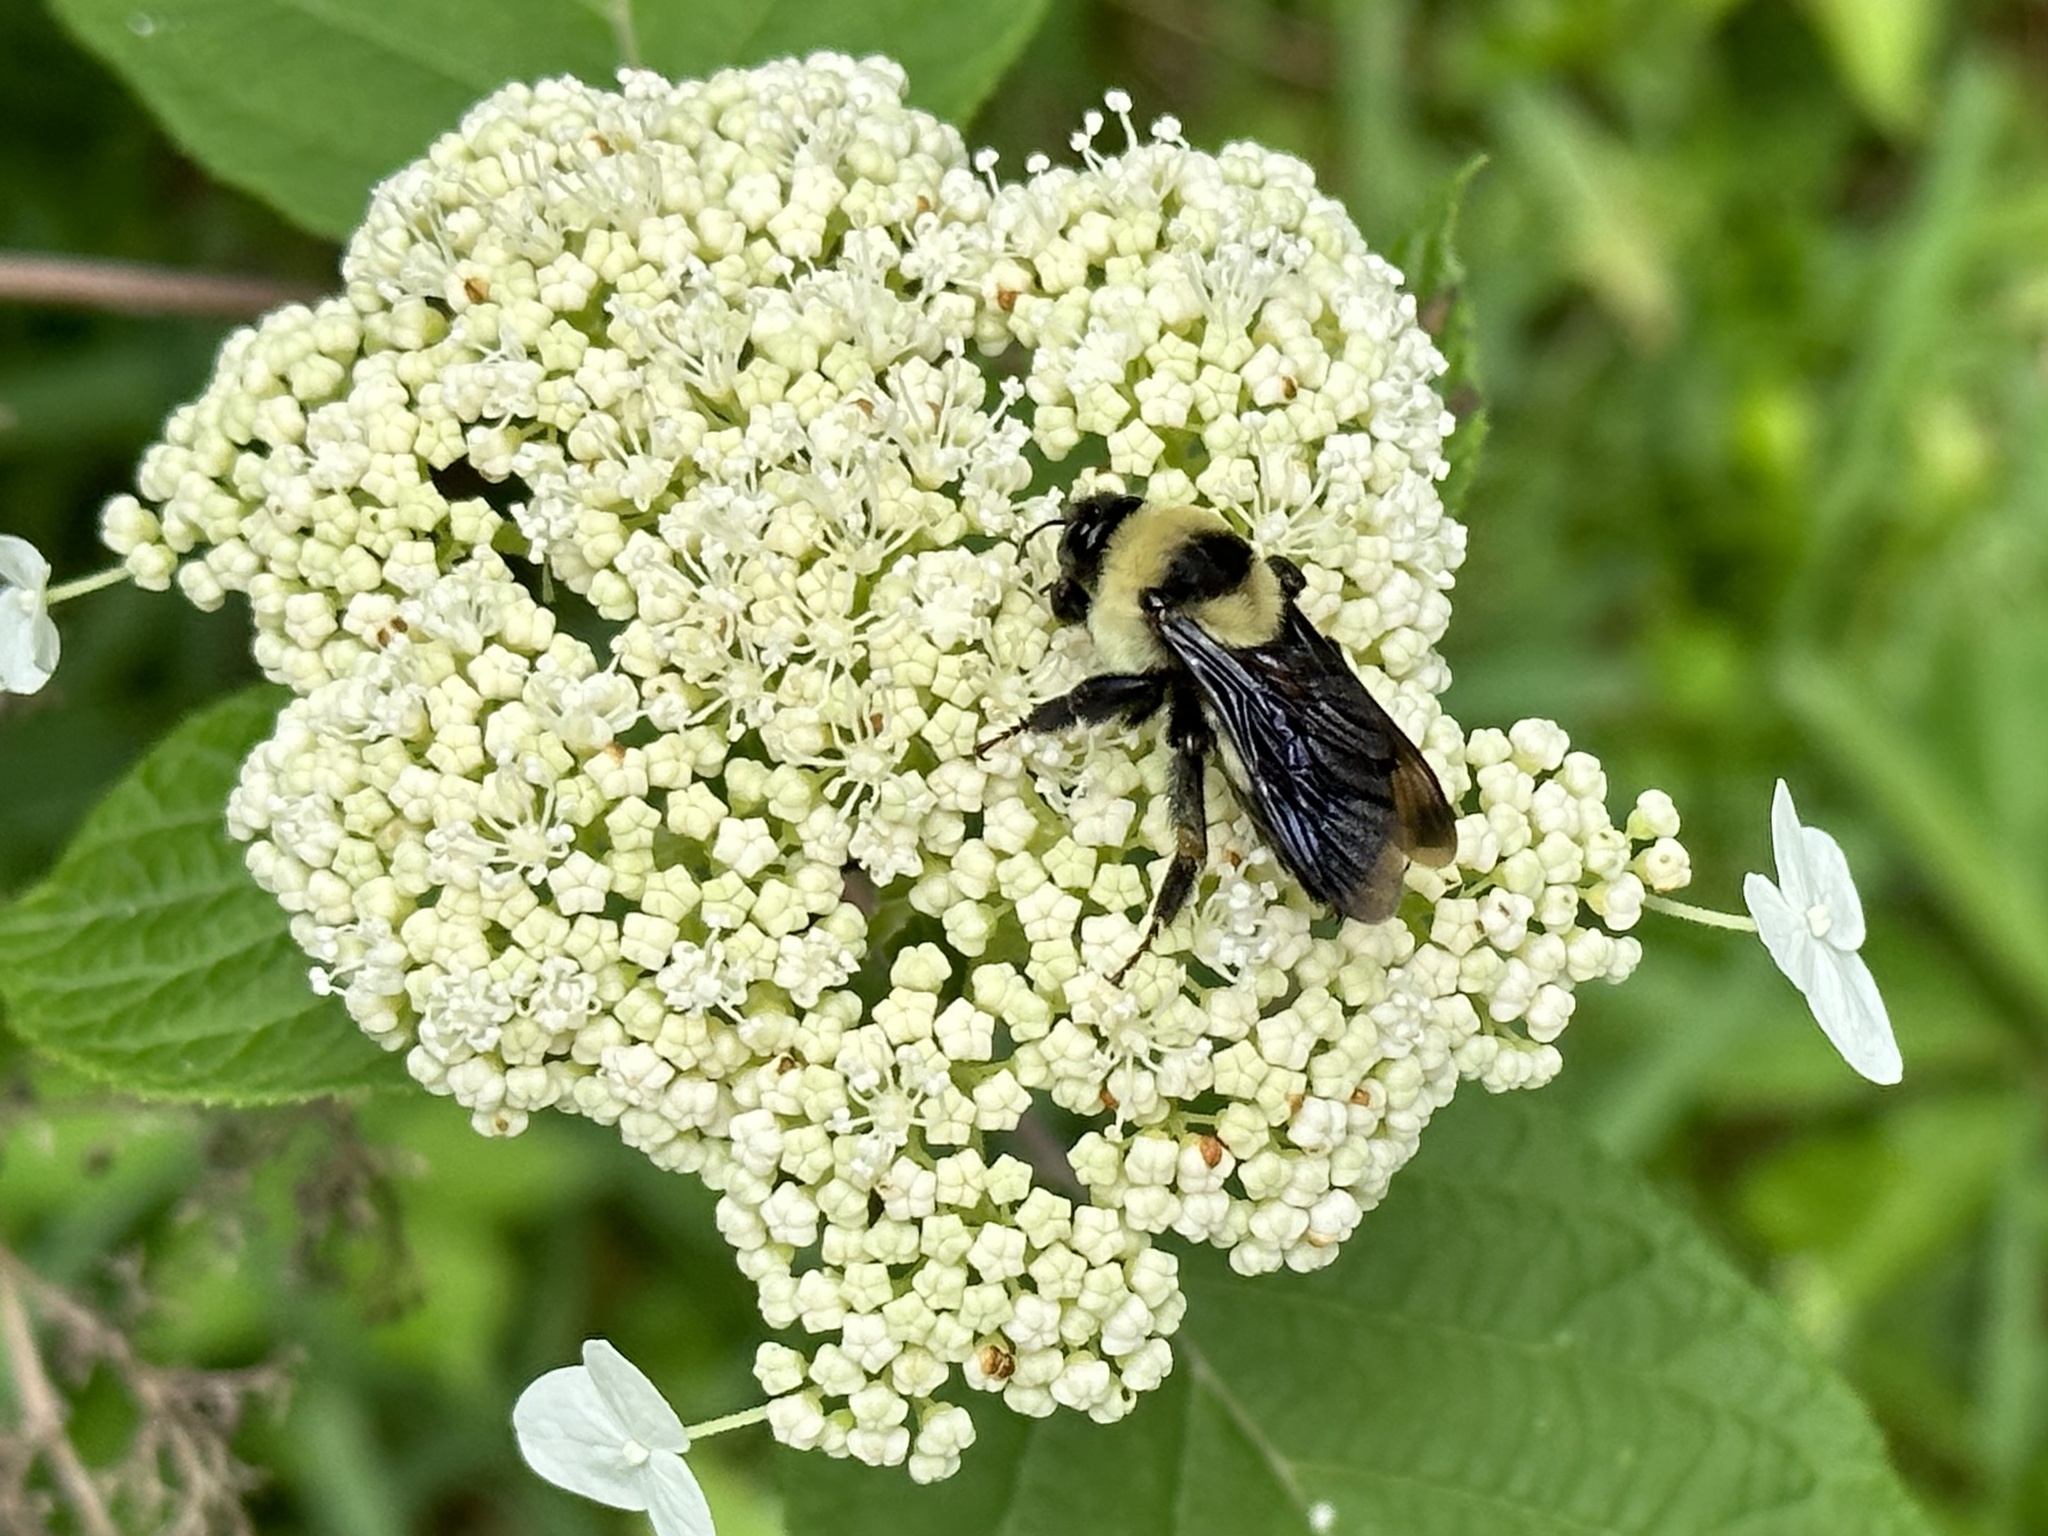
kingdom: Animalia
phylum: Arthropoda
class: Insecta
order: Hymenoptera
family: Apidae
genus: Bombus
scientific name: Bombus fraternus
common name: Southern plains bumble bee
